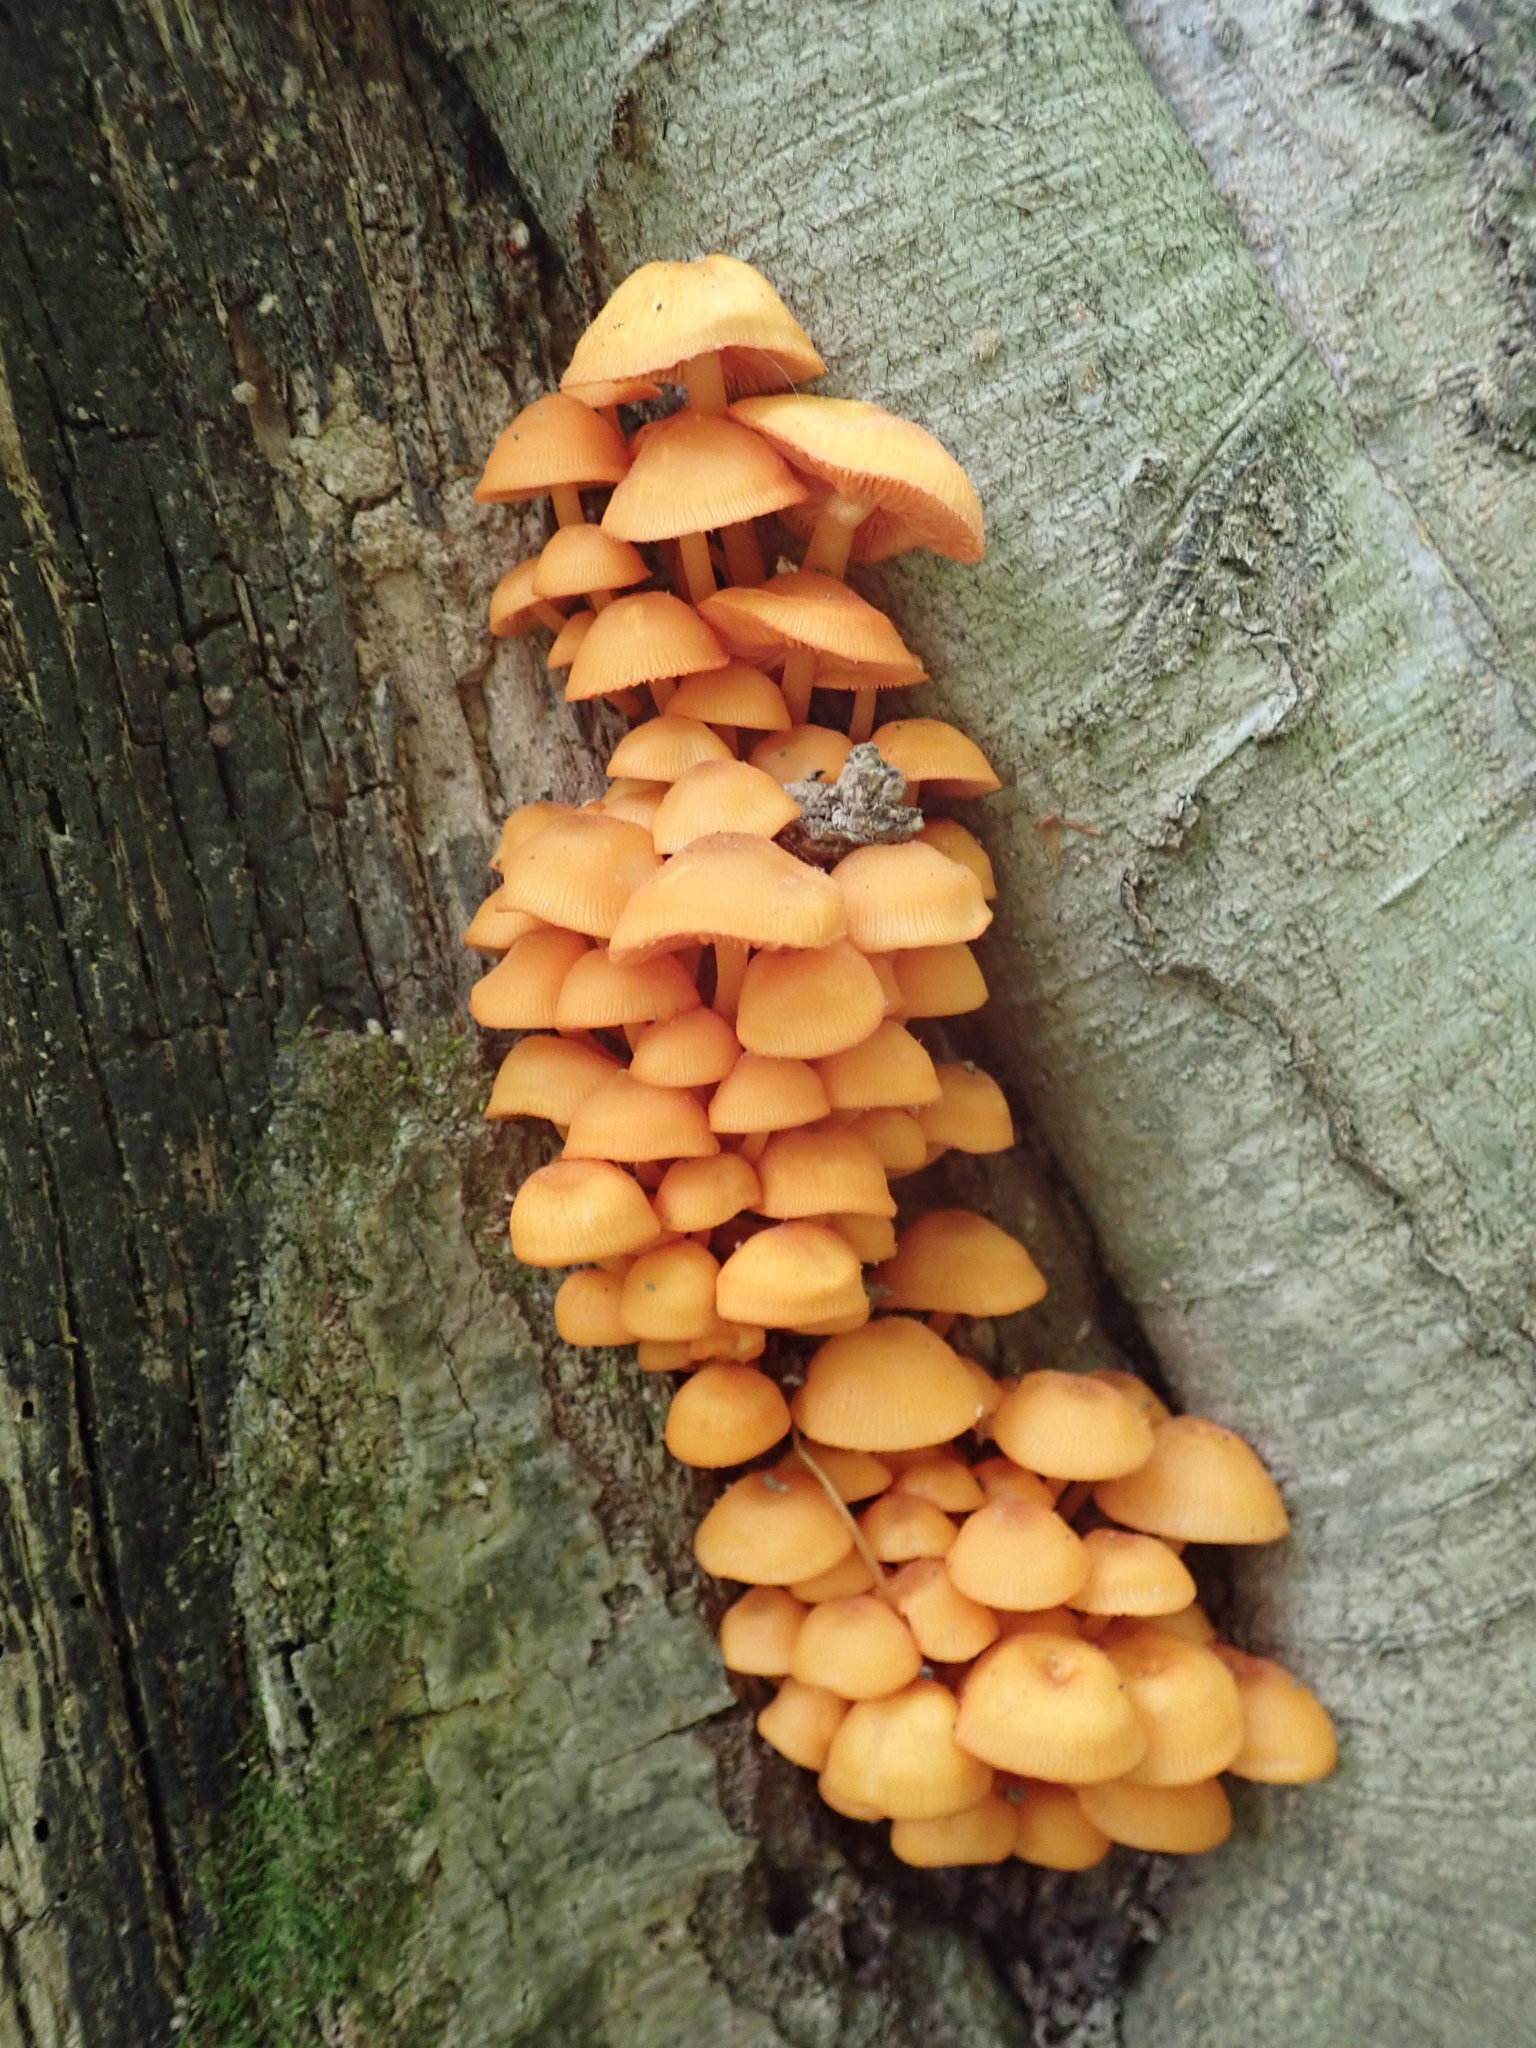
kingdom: Fungi
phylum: Basidiomycota
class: Agaricomycetes
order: Agaricales
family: Mycenaceae
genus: Mycena
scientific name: Mycena leaiana
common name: Orange mycena
